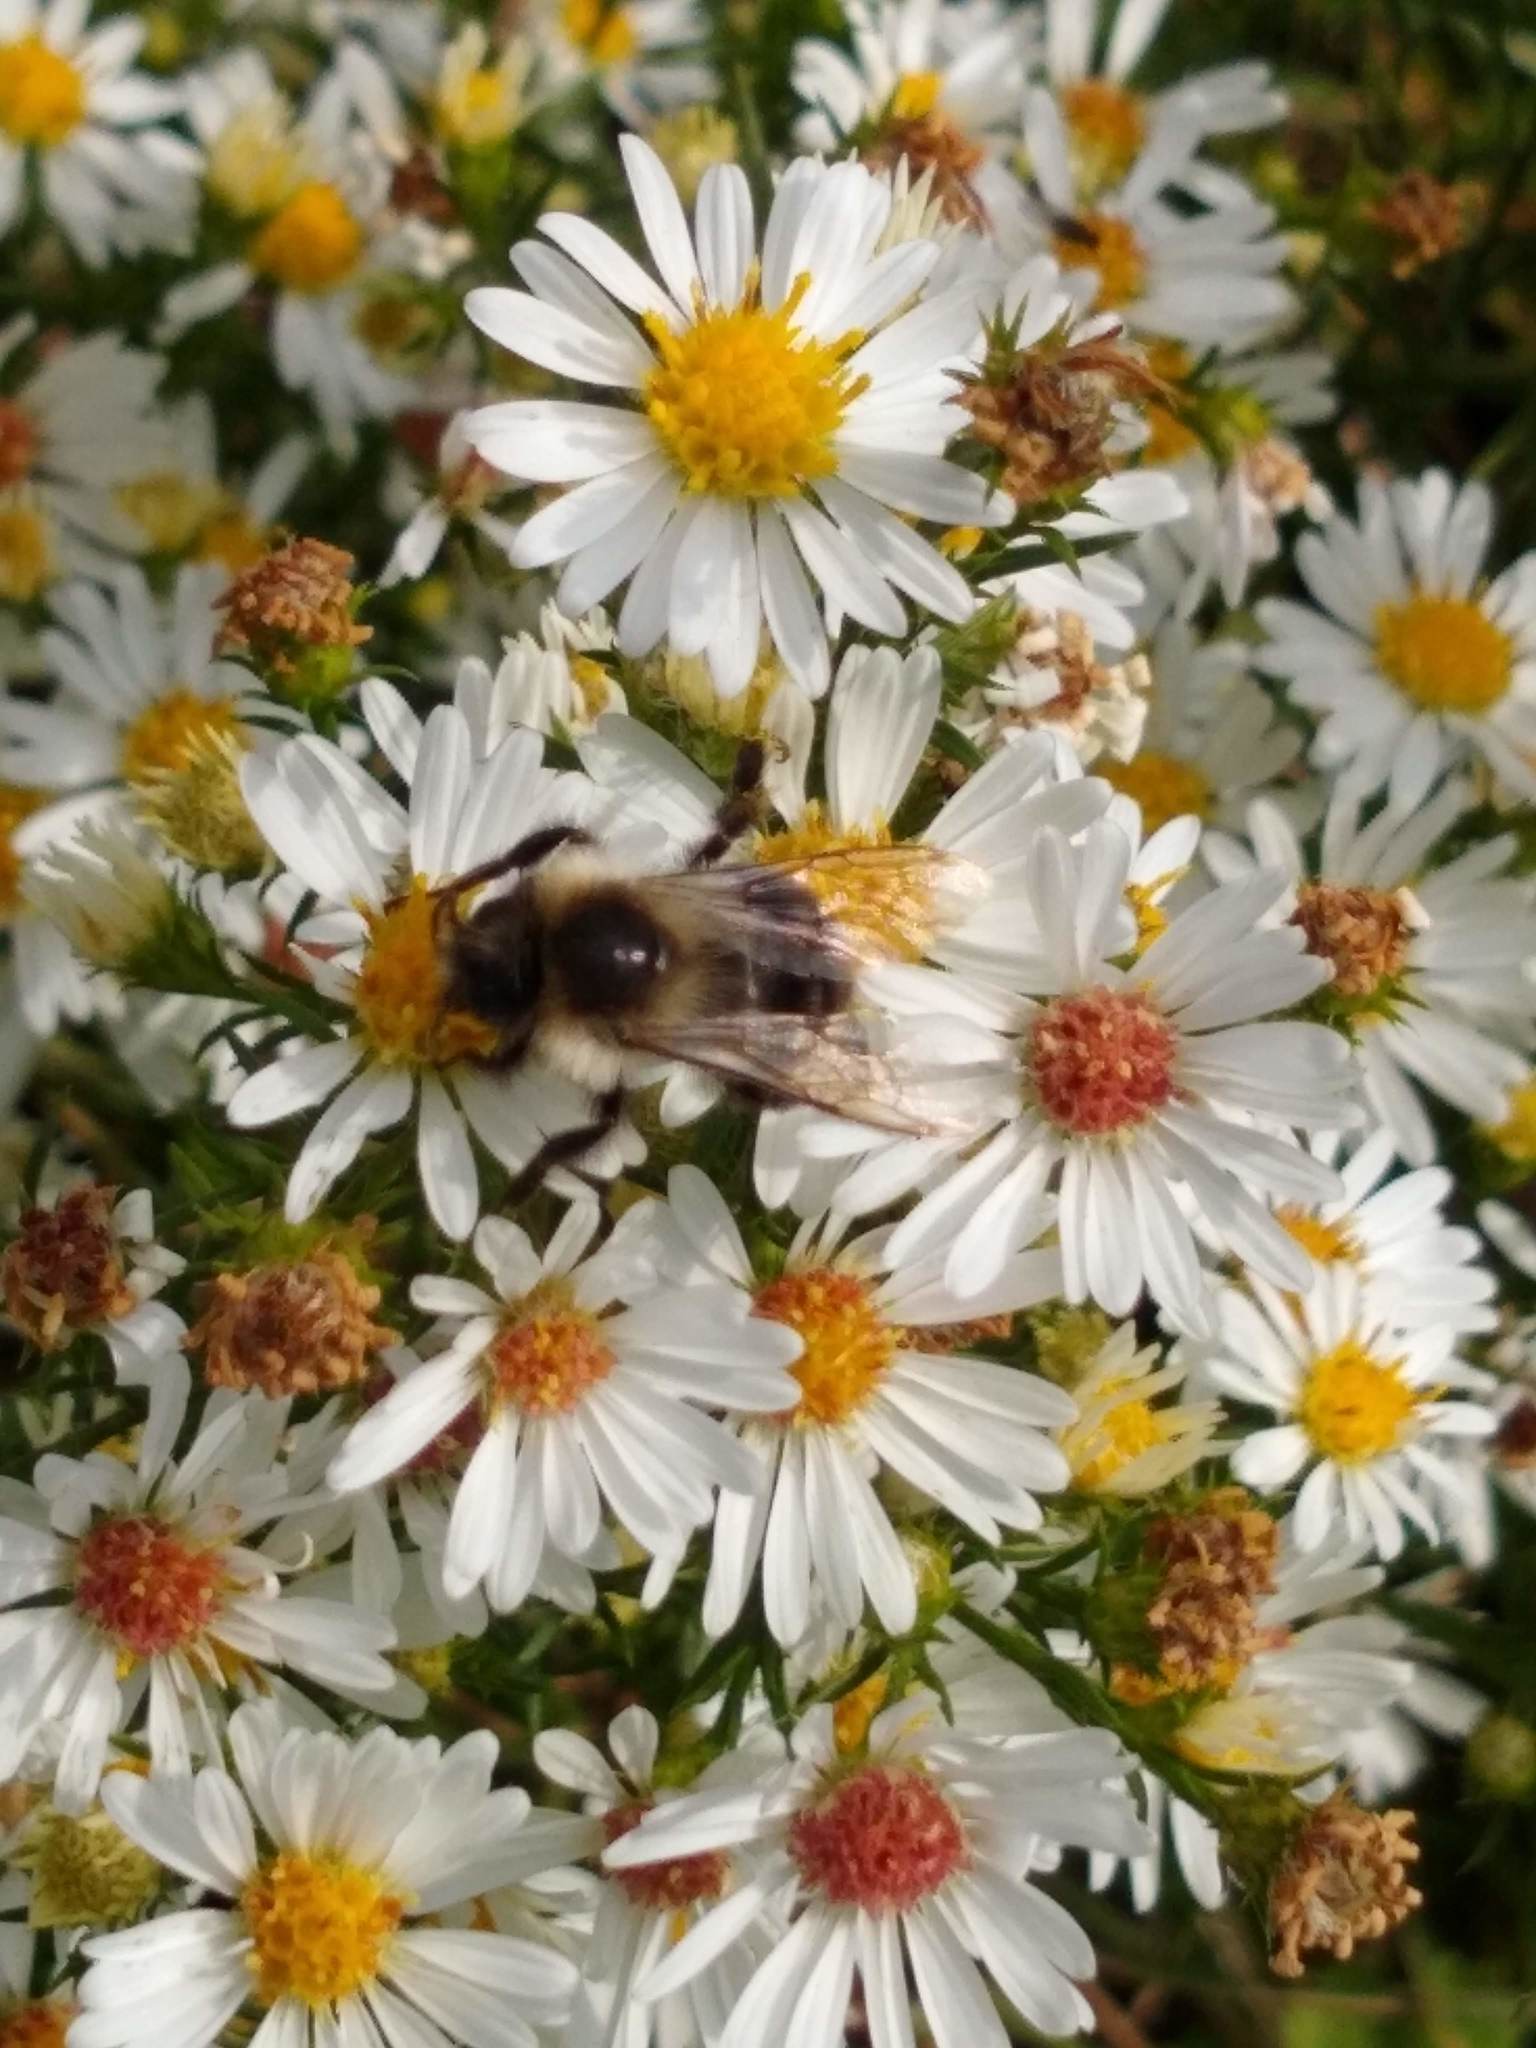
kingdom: Animalia
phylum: Arthropoda
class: Insecta
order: Hymenoptera
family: Apidae
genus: Bombus
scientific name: Bombus impatiens
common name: Common eastern bumble bee
